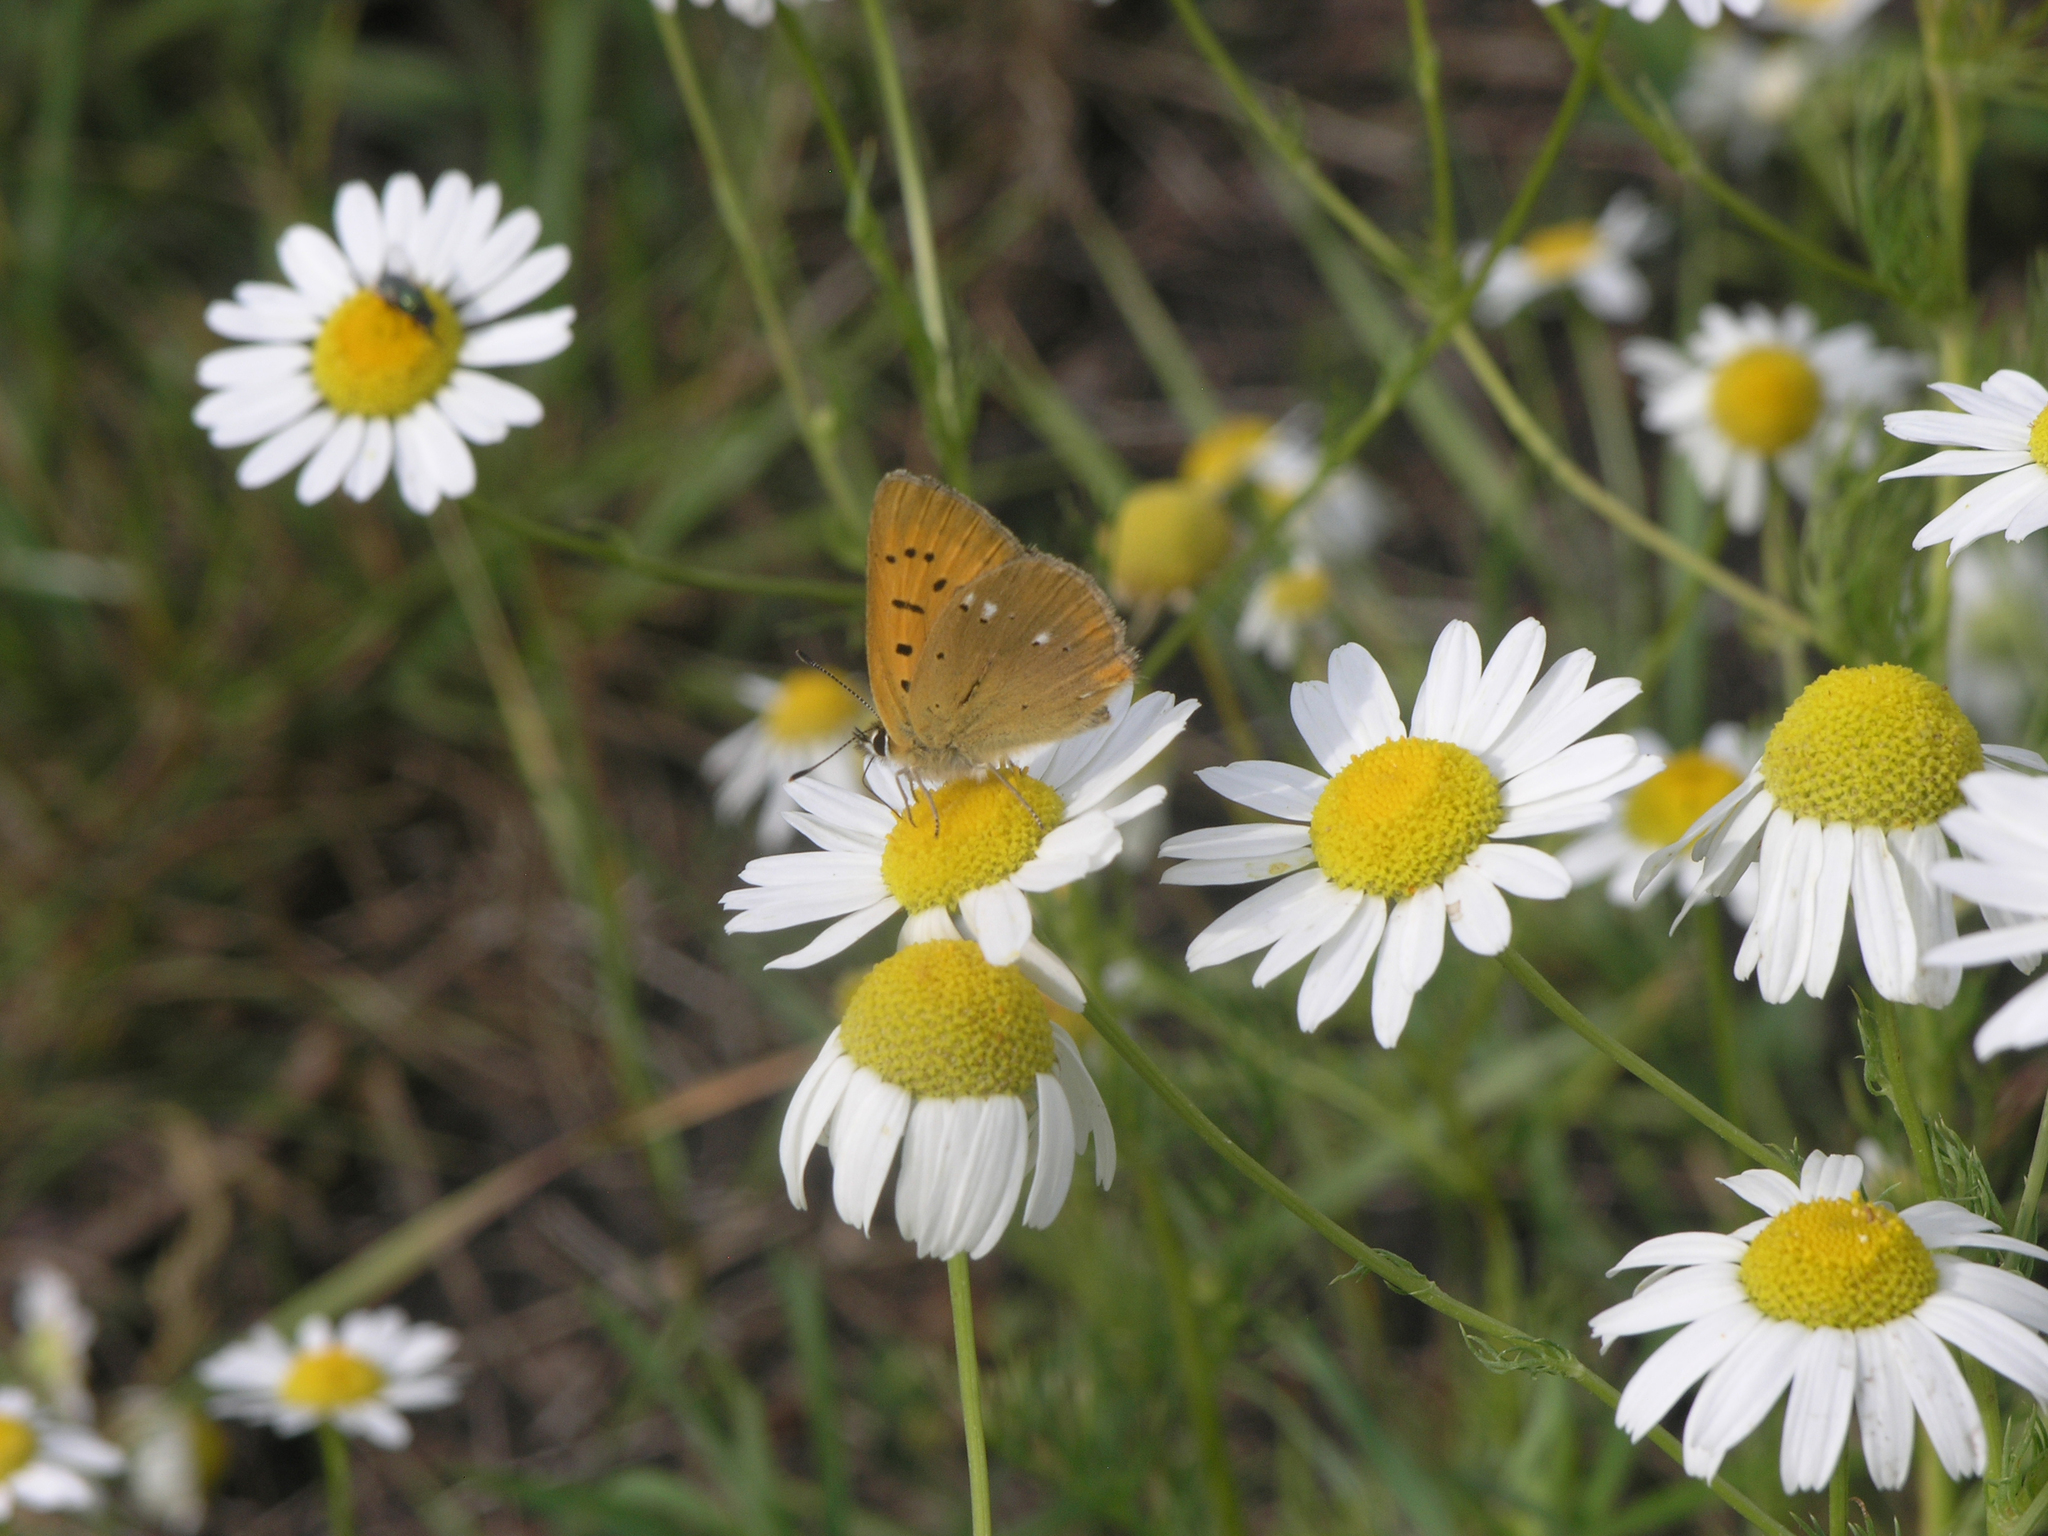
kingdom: Animalia
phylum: Arthropoda
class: Insecta
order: Lepidoptera
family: Lycaenidae
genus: Lycaena
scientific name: Lycaena virgaureae
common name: Scarce copper
